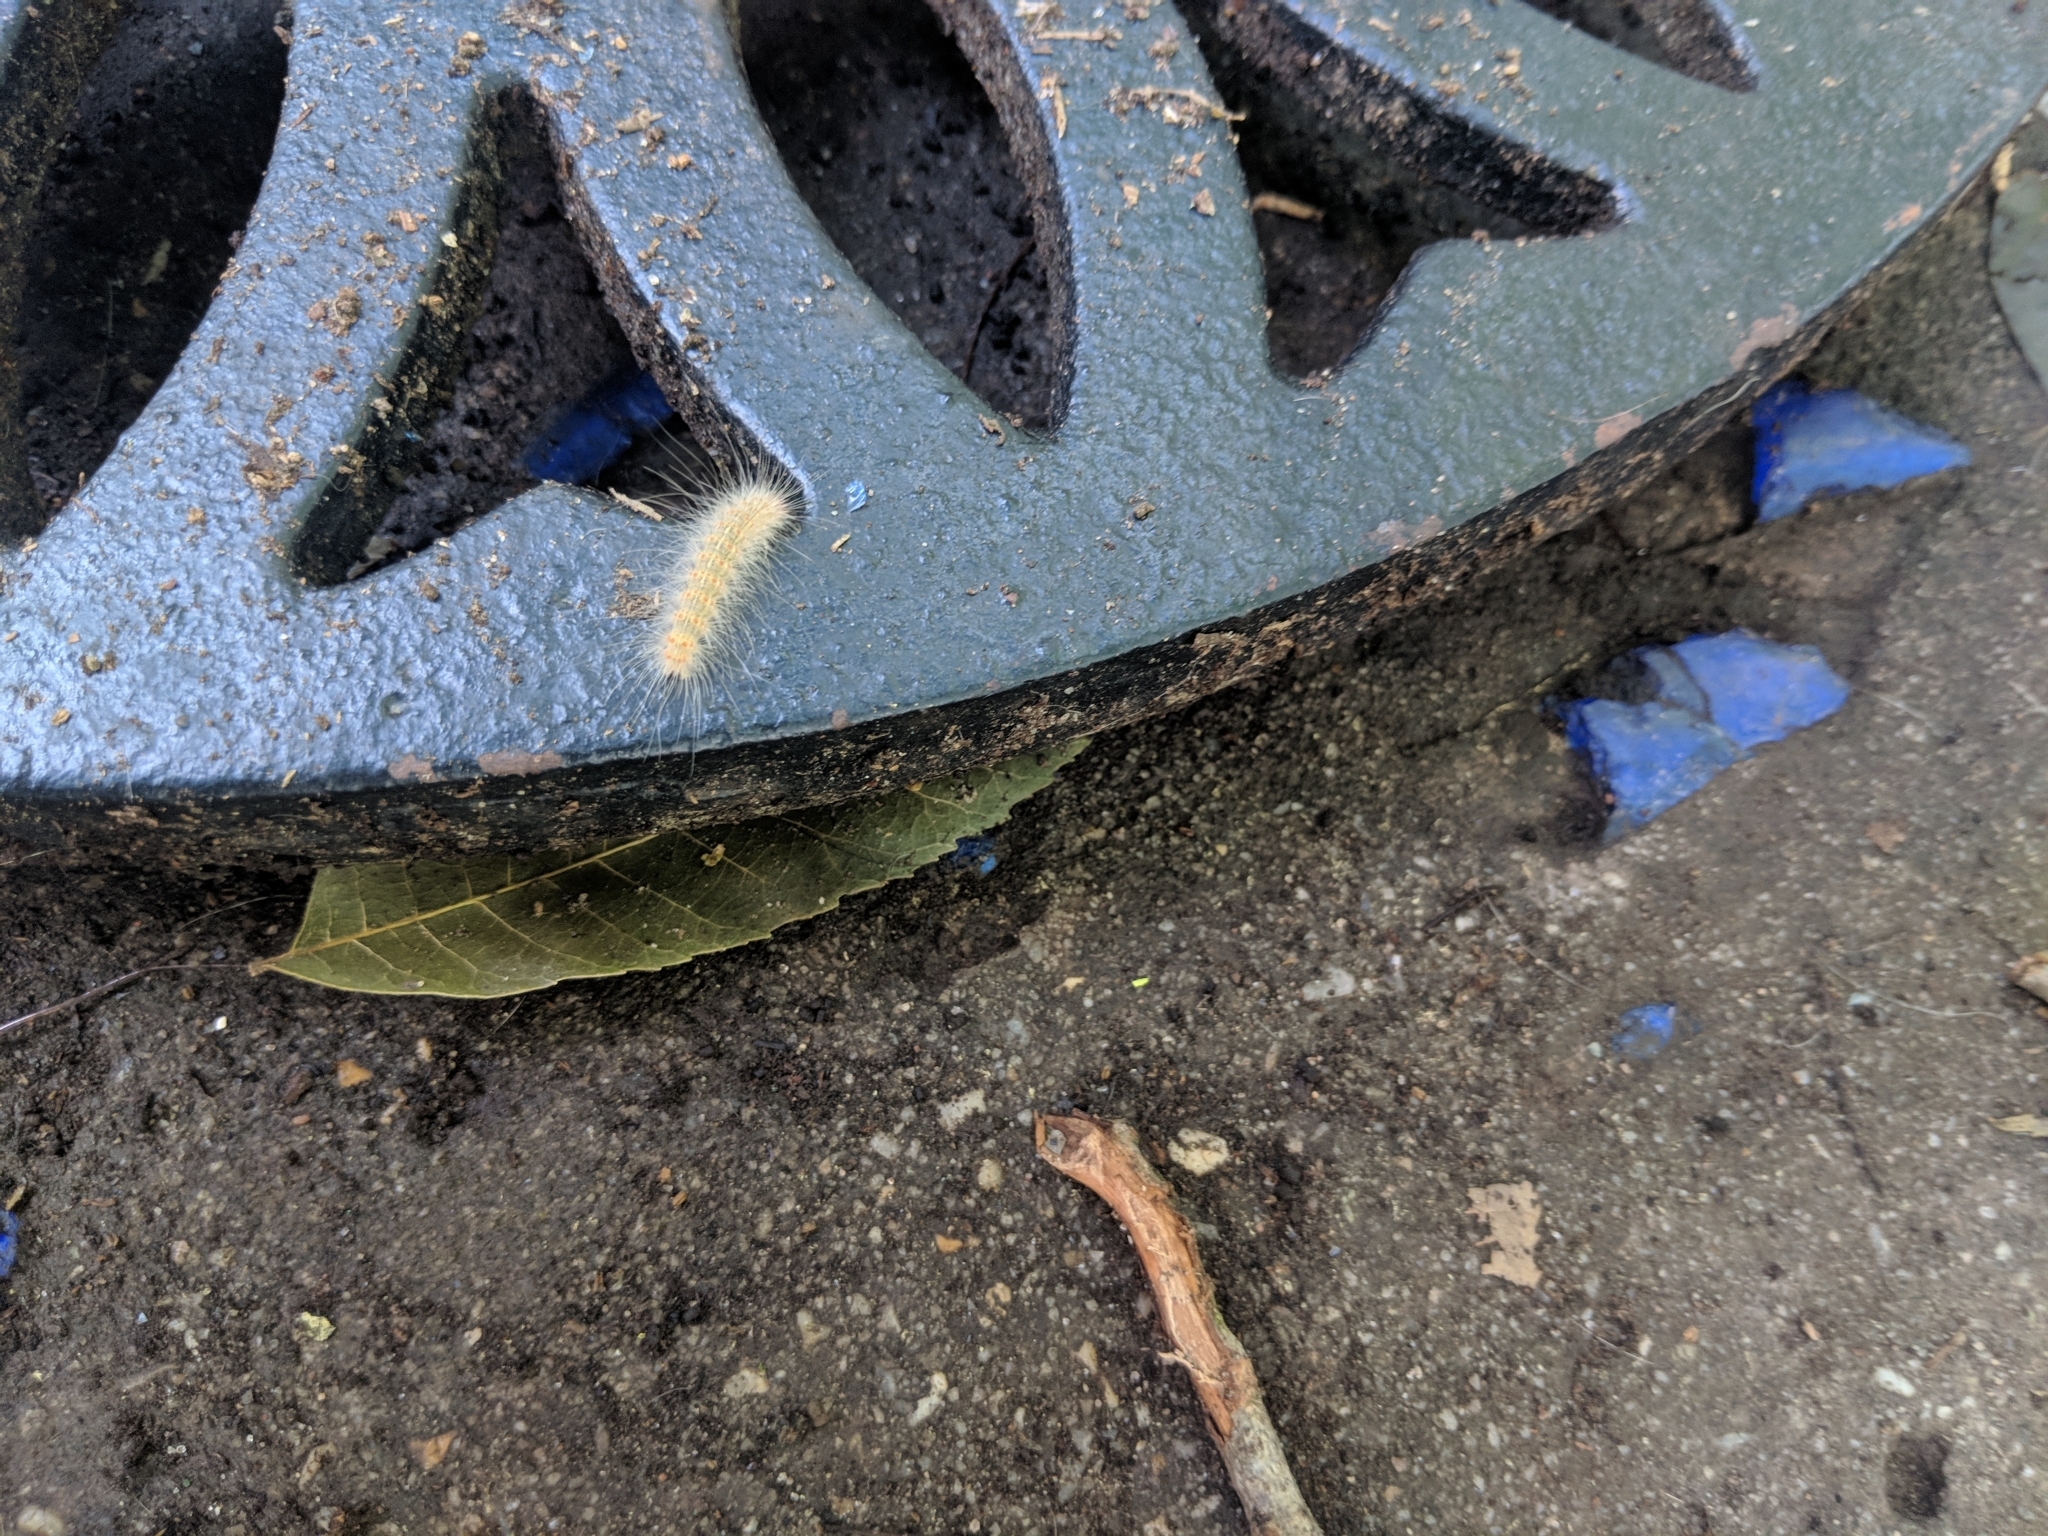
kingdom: Animalia
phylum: Arthropoda
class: Insecta
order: Lepidoptera
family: Erebidae
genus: Hyphantria
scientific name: Hyphantria cunea
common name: American white moth
